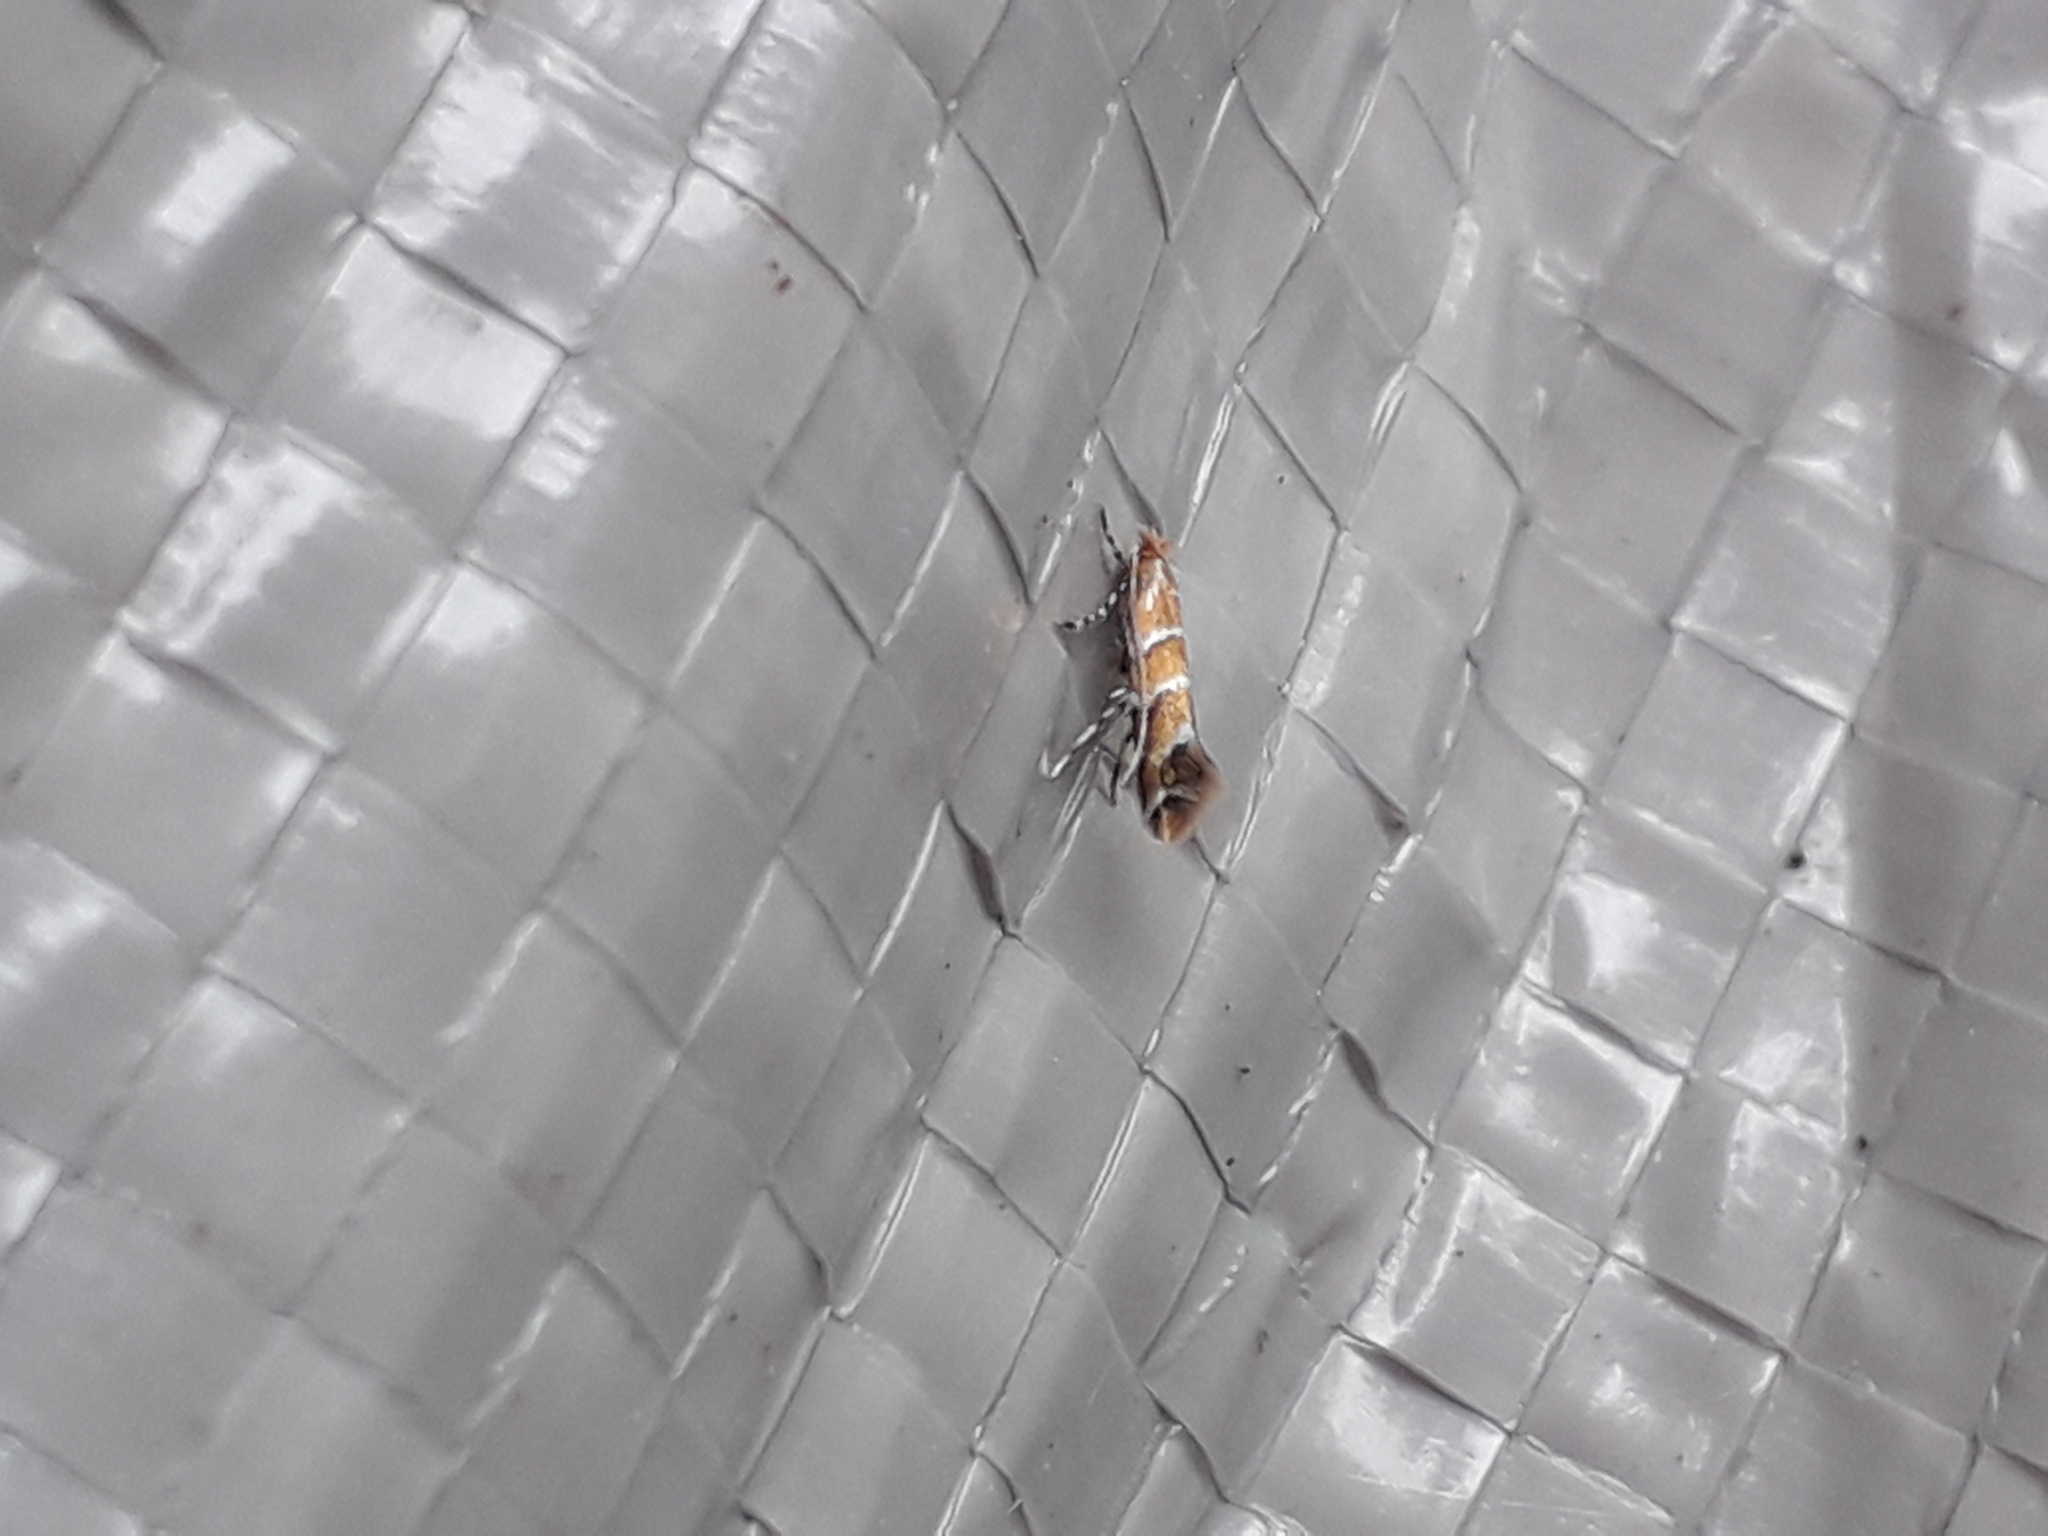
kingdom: Animalia
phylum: Arthropoda
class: Insecta
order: Lepidoptera
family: Gracillariidae
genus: Cameraria
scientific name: Cameraria ohridella
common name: Horse-chestnut leaf-miner
